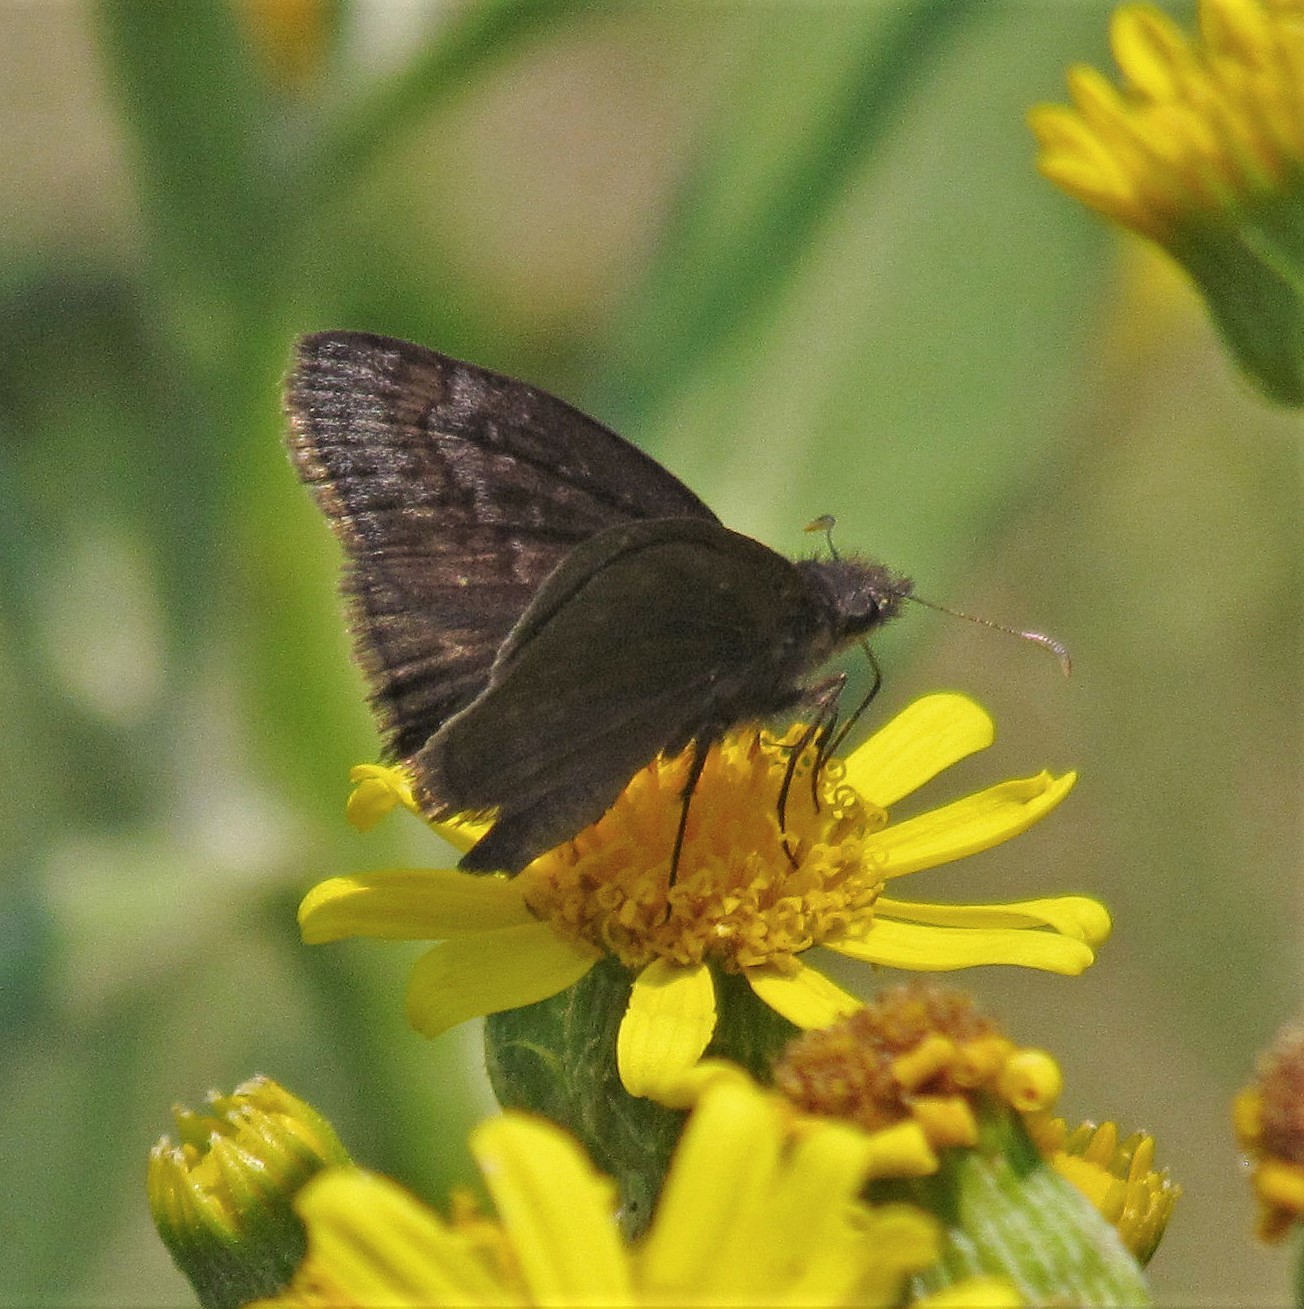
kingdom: Animalia
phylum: Arthropoda
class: Insecta
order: Lepidoptera
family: Hesperiidae
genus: Gesta
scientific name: Gesta austerus
